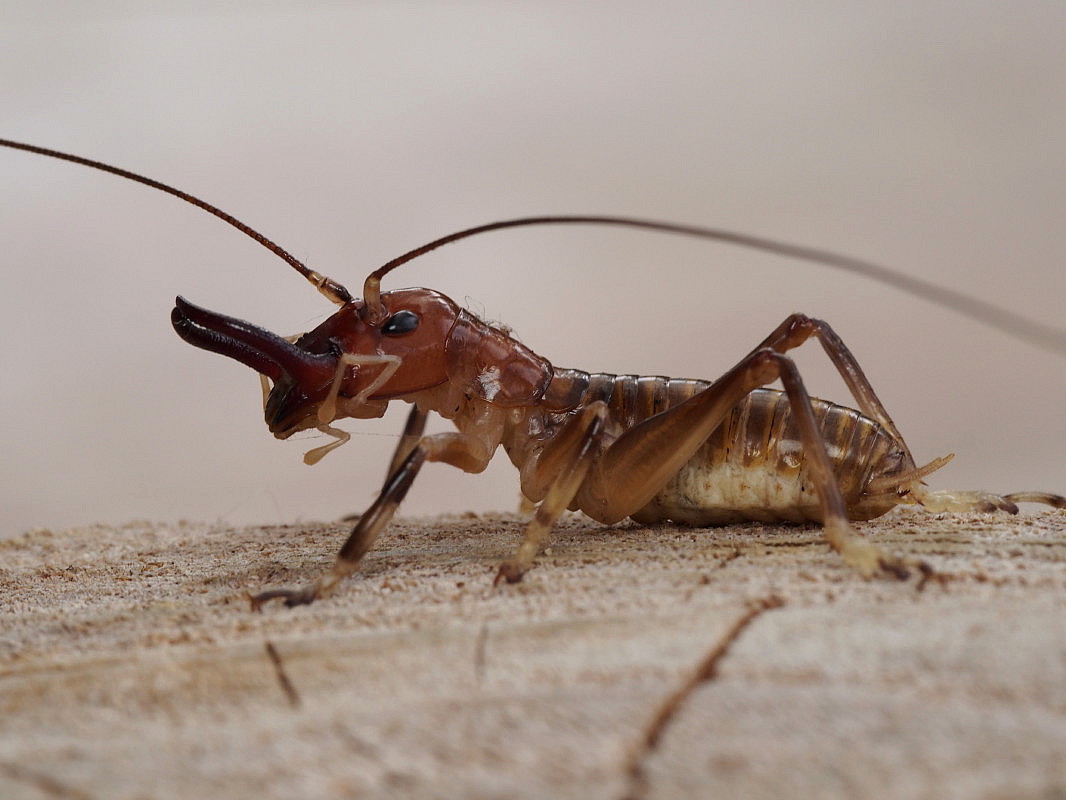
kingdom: Animalia
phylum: Arthropoda
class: Insecta
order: Orthoptera
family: Anostostomatidae
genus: Anisoura
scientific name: Anisoura nicobarica
